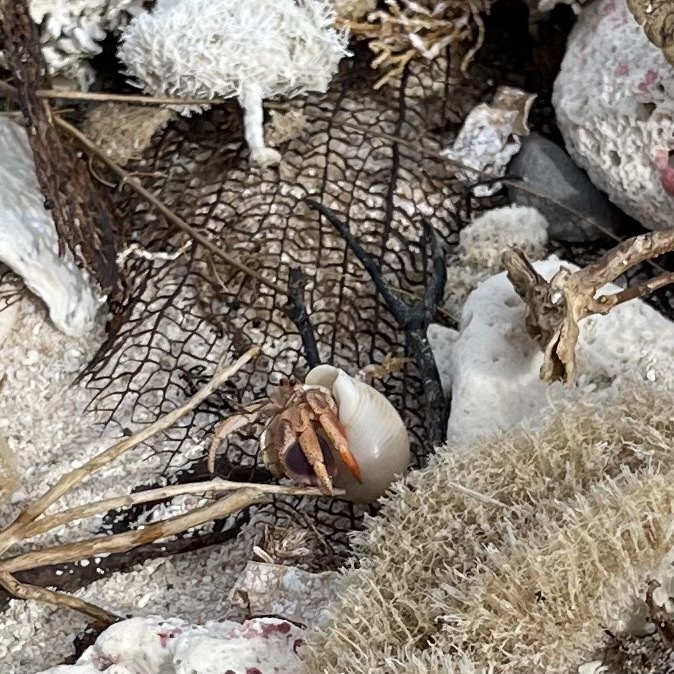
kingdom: Animalia
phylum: Arthropoda
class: Malacostraca
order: Decapoda
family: Coenobitidae
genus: Coenobita
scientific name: Coenobita clypeatus
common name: Caribbean hermit crab
